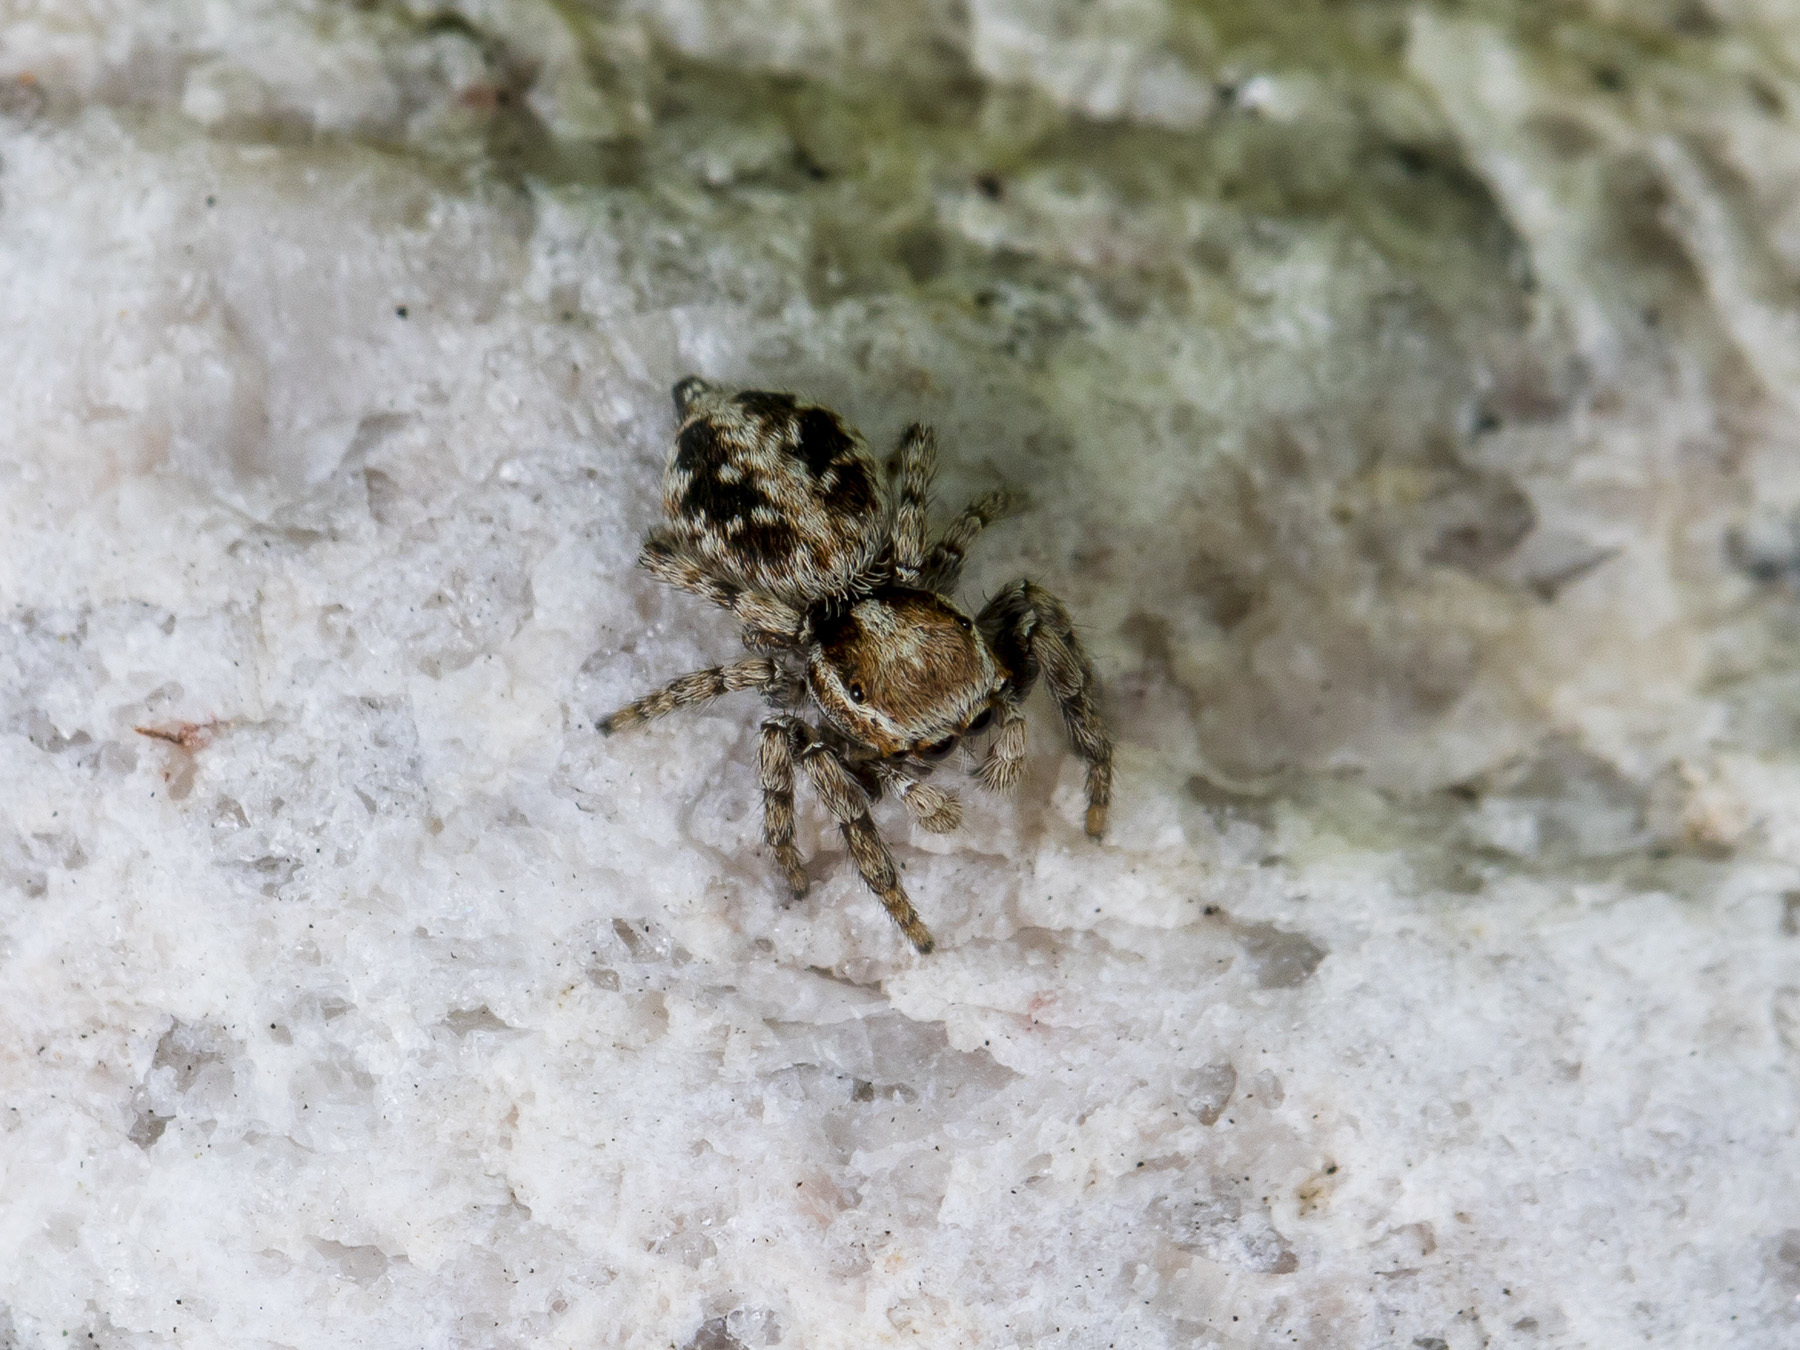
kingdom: Animalia
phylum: Arthropoda
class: Arachnida
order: Araneae
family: Salticidae
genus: Attulus
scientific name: Attulus avocator
